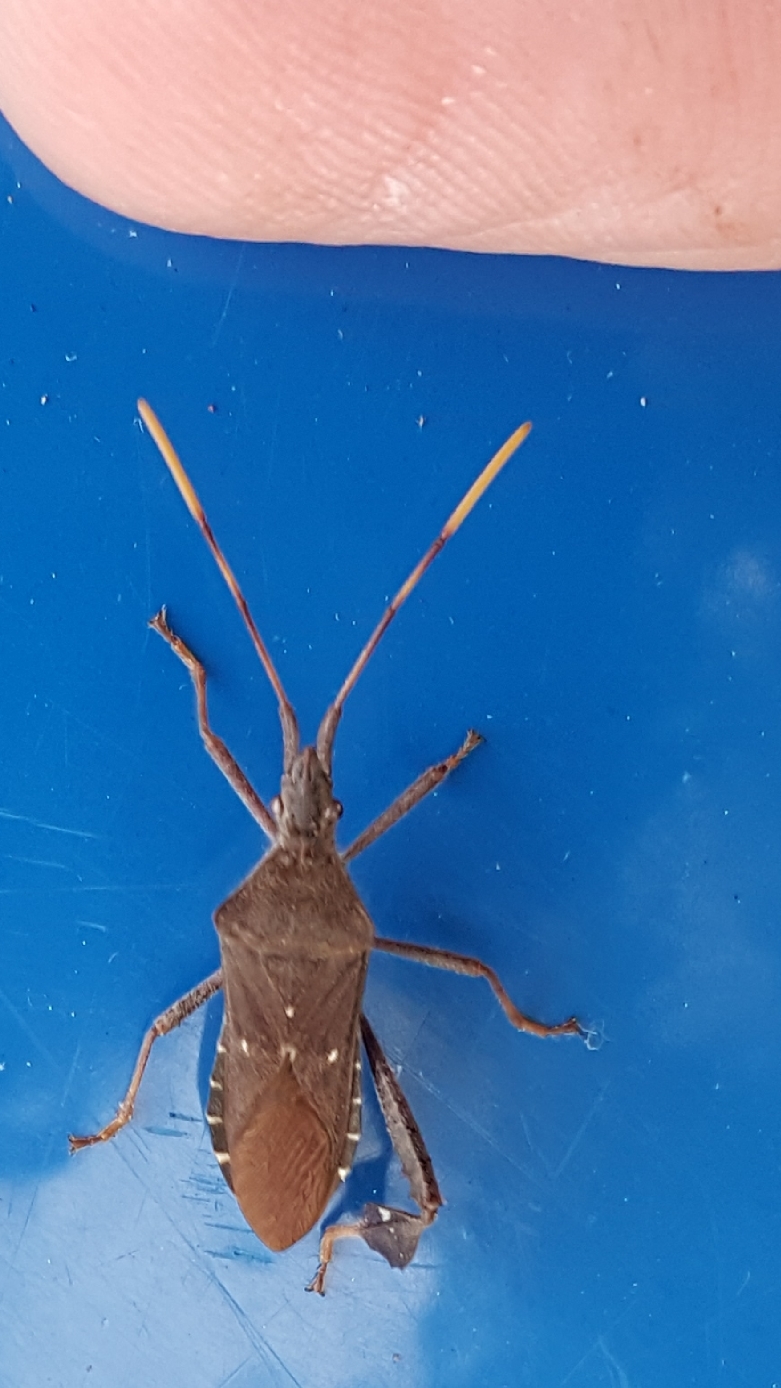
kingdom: Animalia
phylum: Arthropoda
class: Insecta
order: Hemiptera
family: Coreidae
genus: Leptoglossus
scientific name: Leptoglossus oppositus
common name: Northern leaf-footed bug
